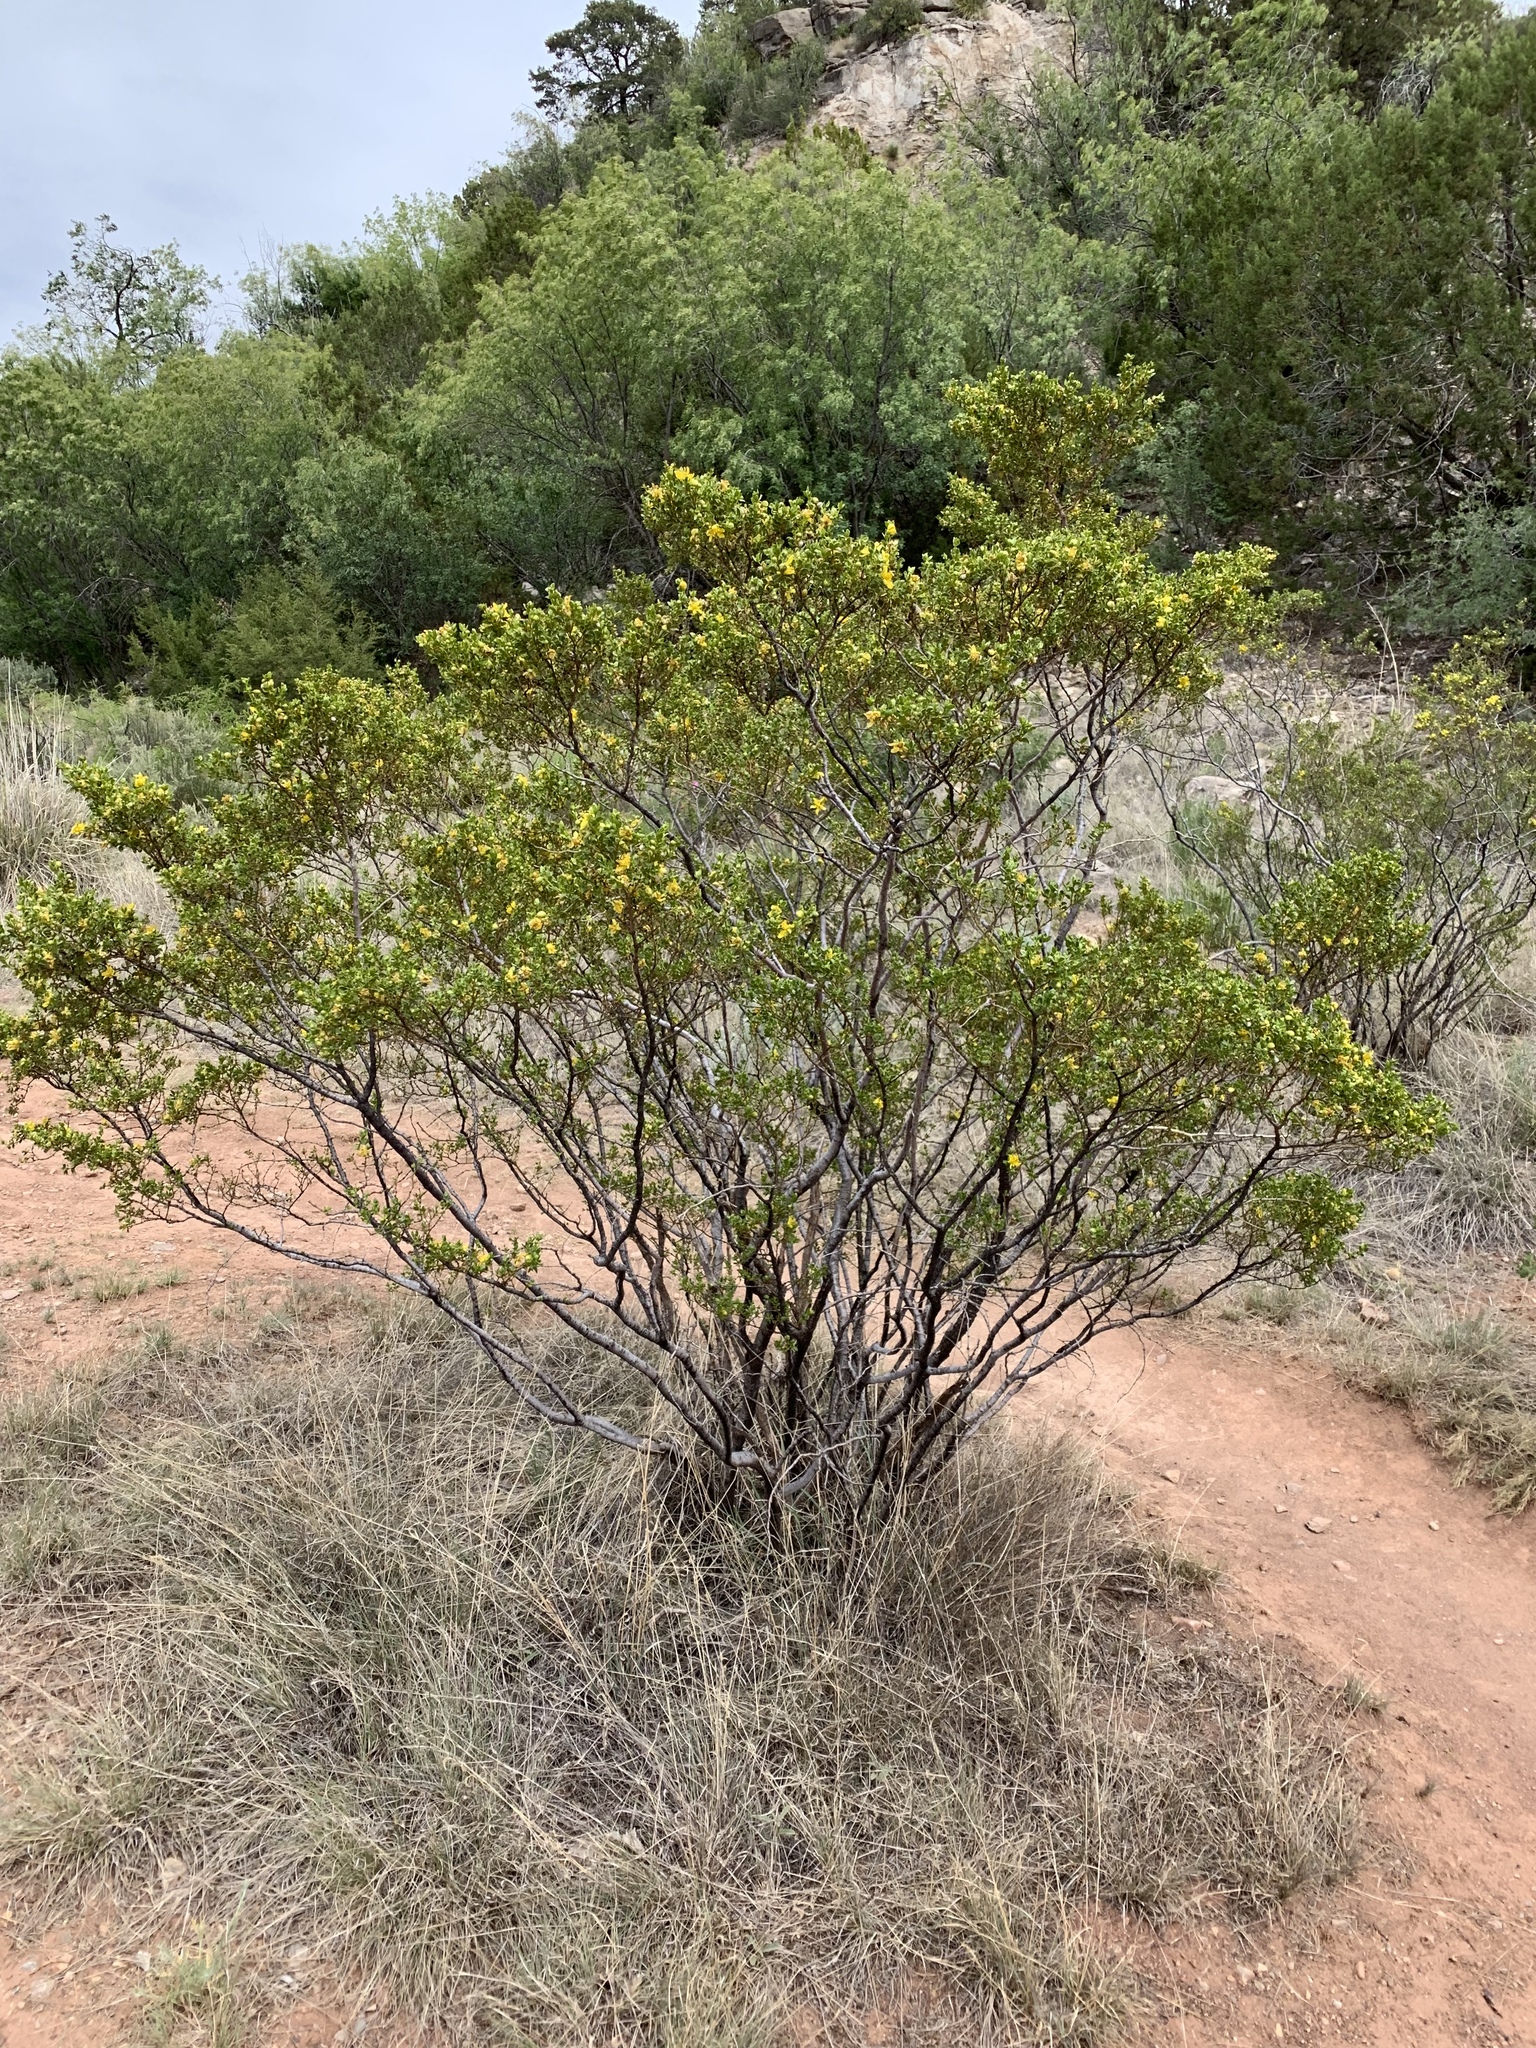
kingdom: Plantae
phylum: Tracheophyta
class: Magnoliopsida
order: Zygophyllales
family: Zygophyllaceae
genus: Larrea
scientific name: Larrea tridentata
